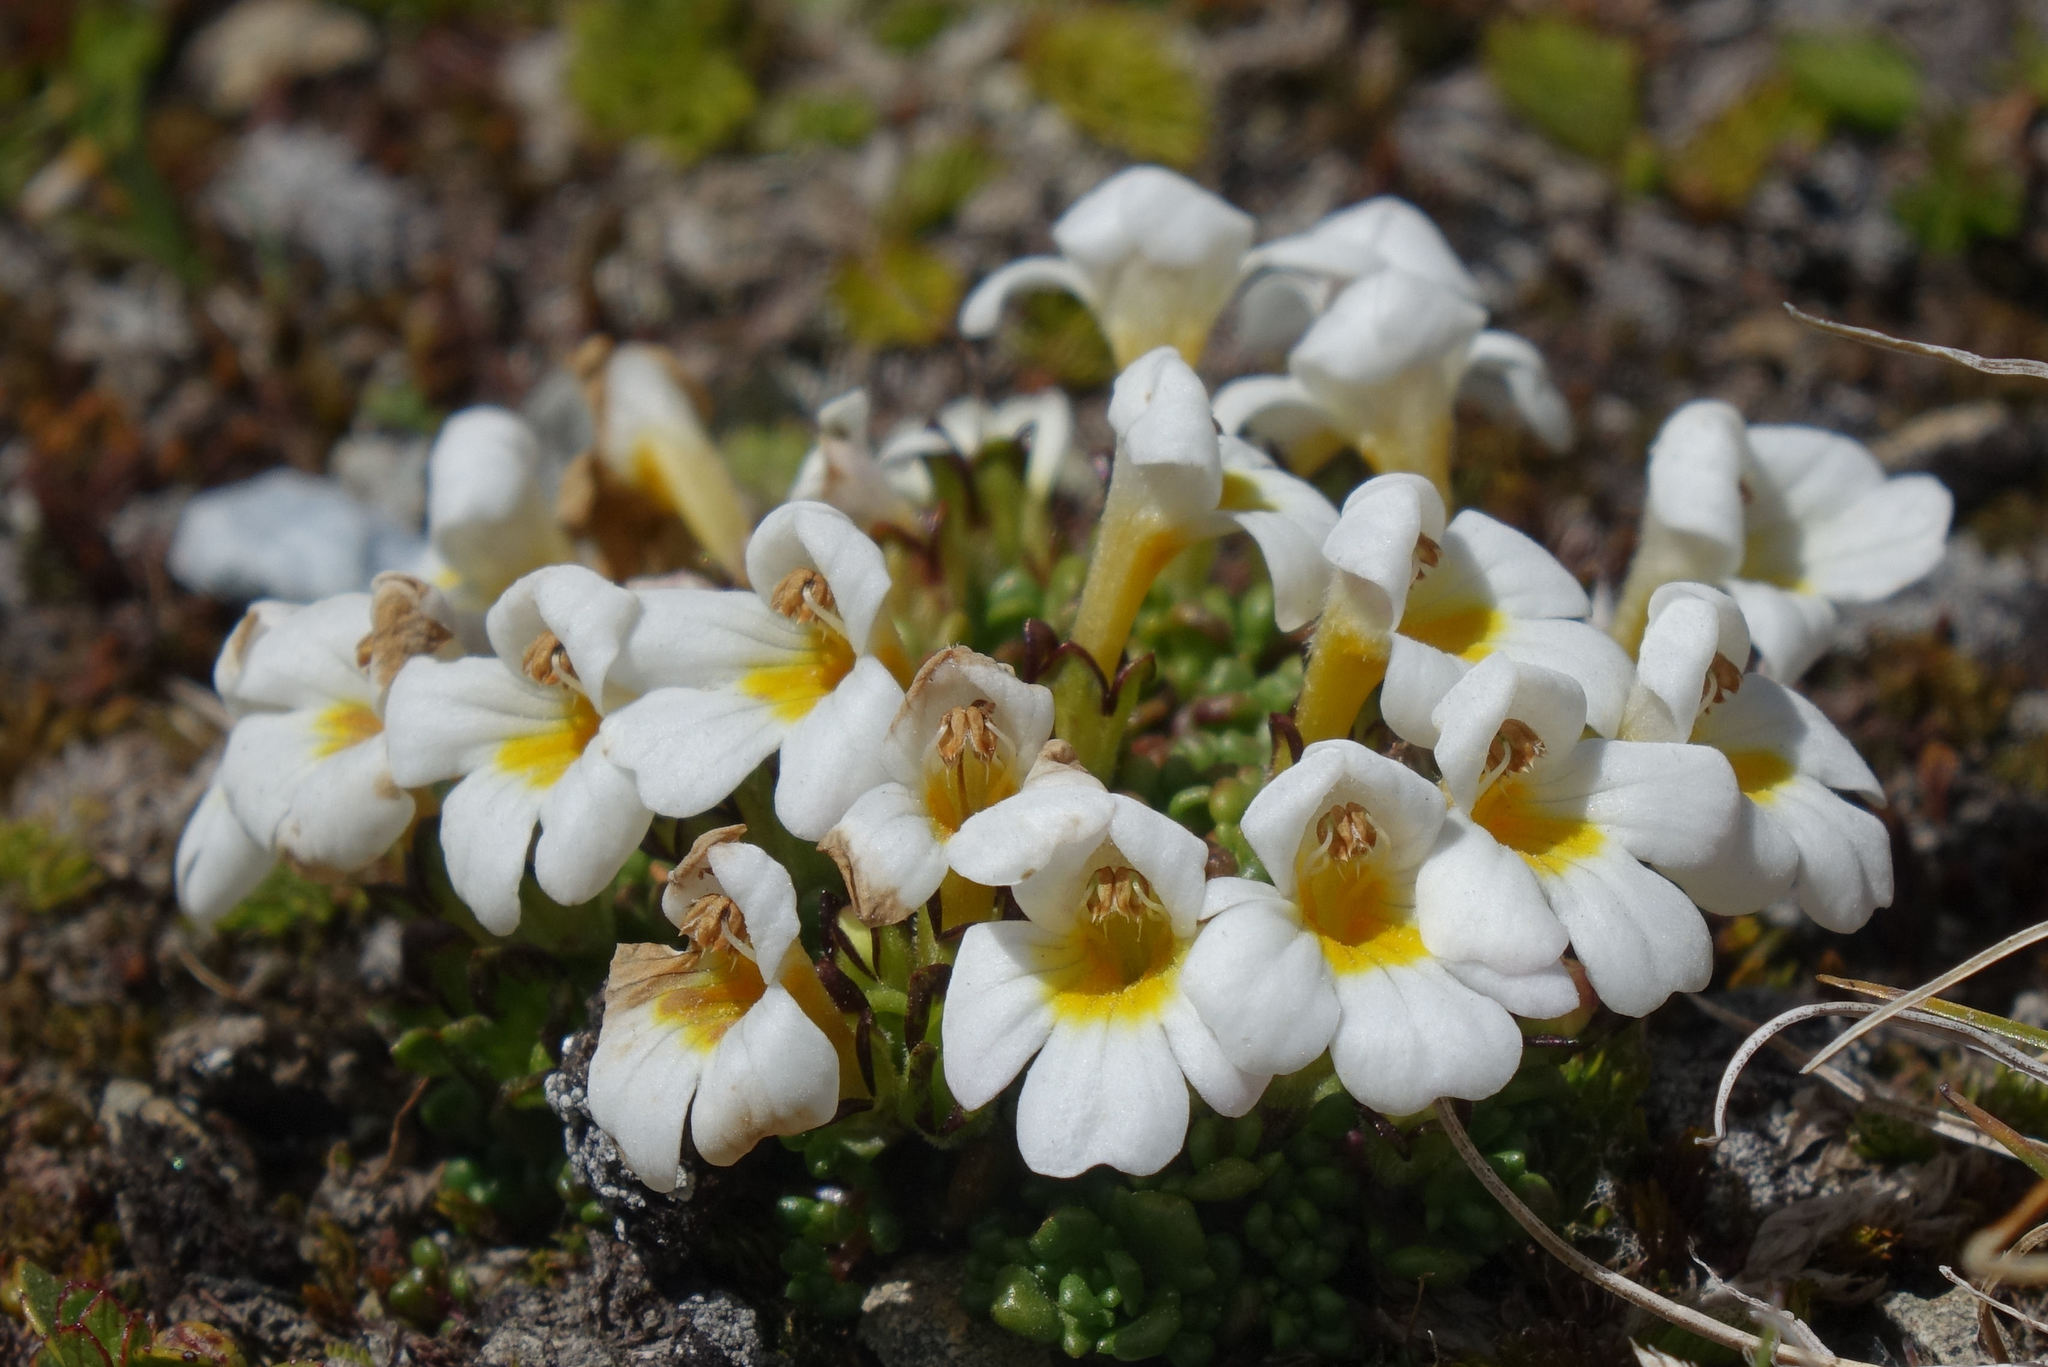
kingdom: Plantae
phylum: Tracheophyta
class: Magnoliopsida
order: Lamiales
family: Orobanchaceae
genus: Euphrasia
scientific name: Euphrasia revoluta
